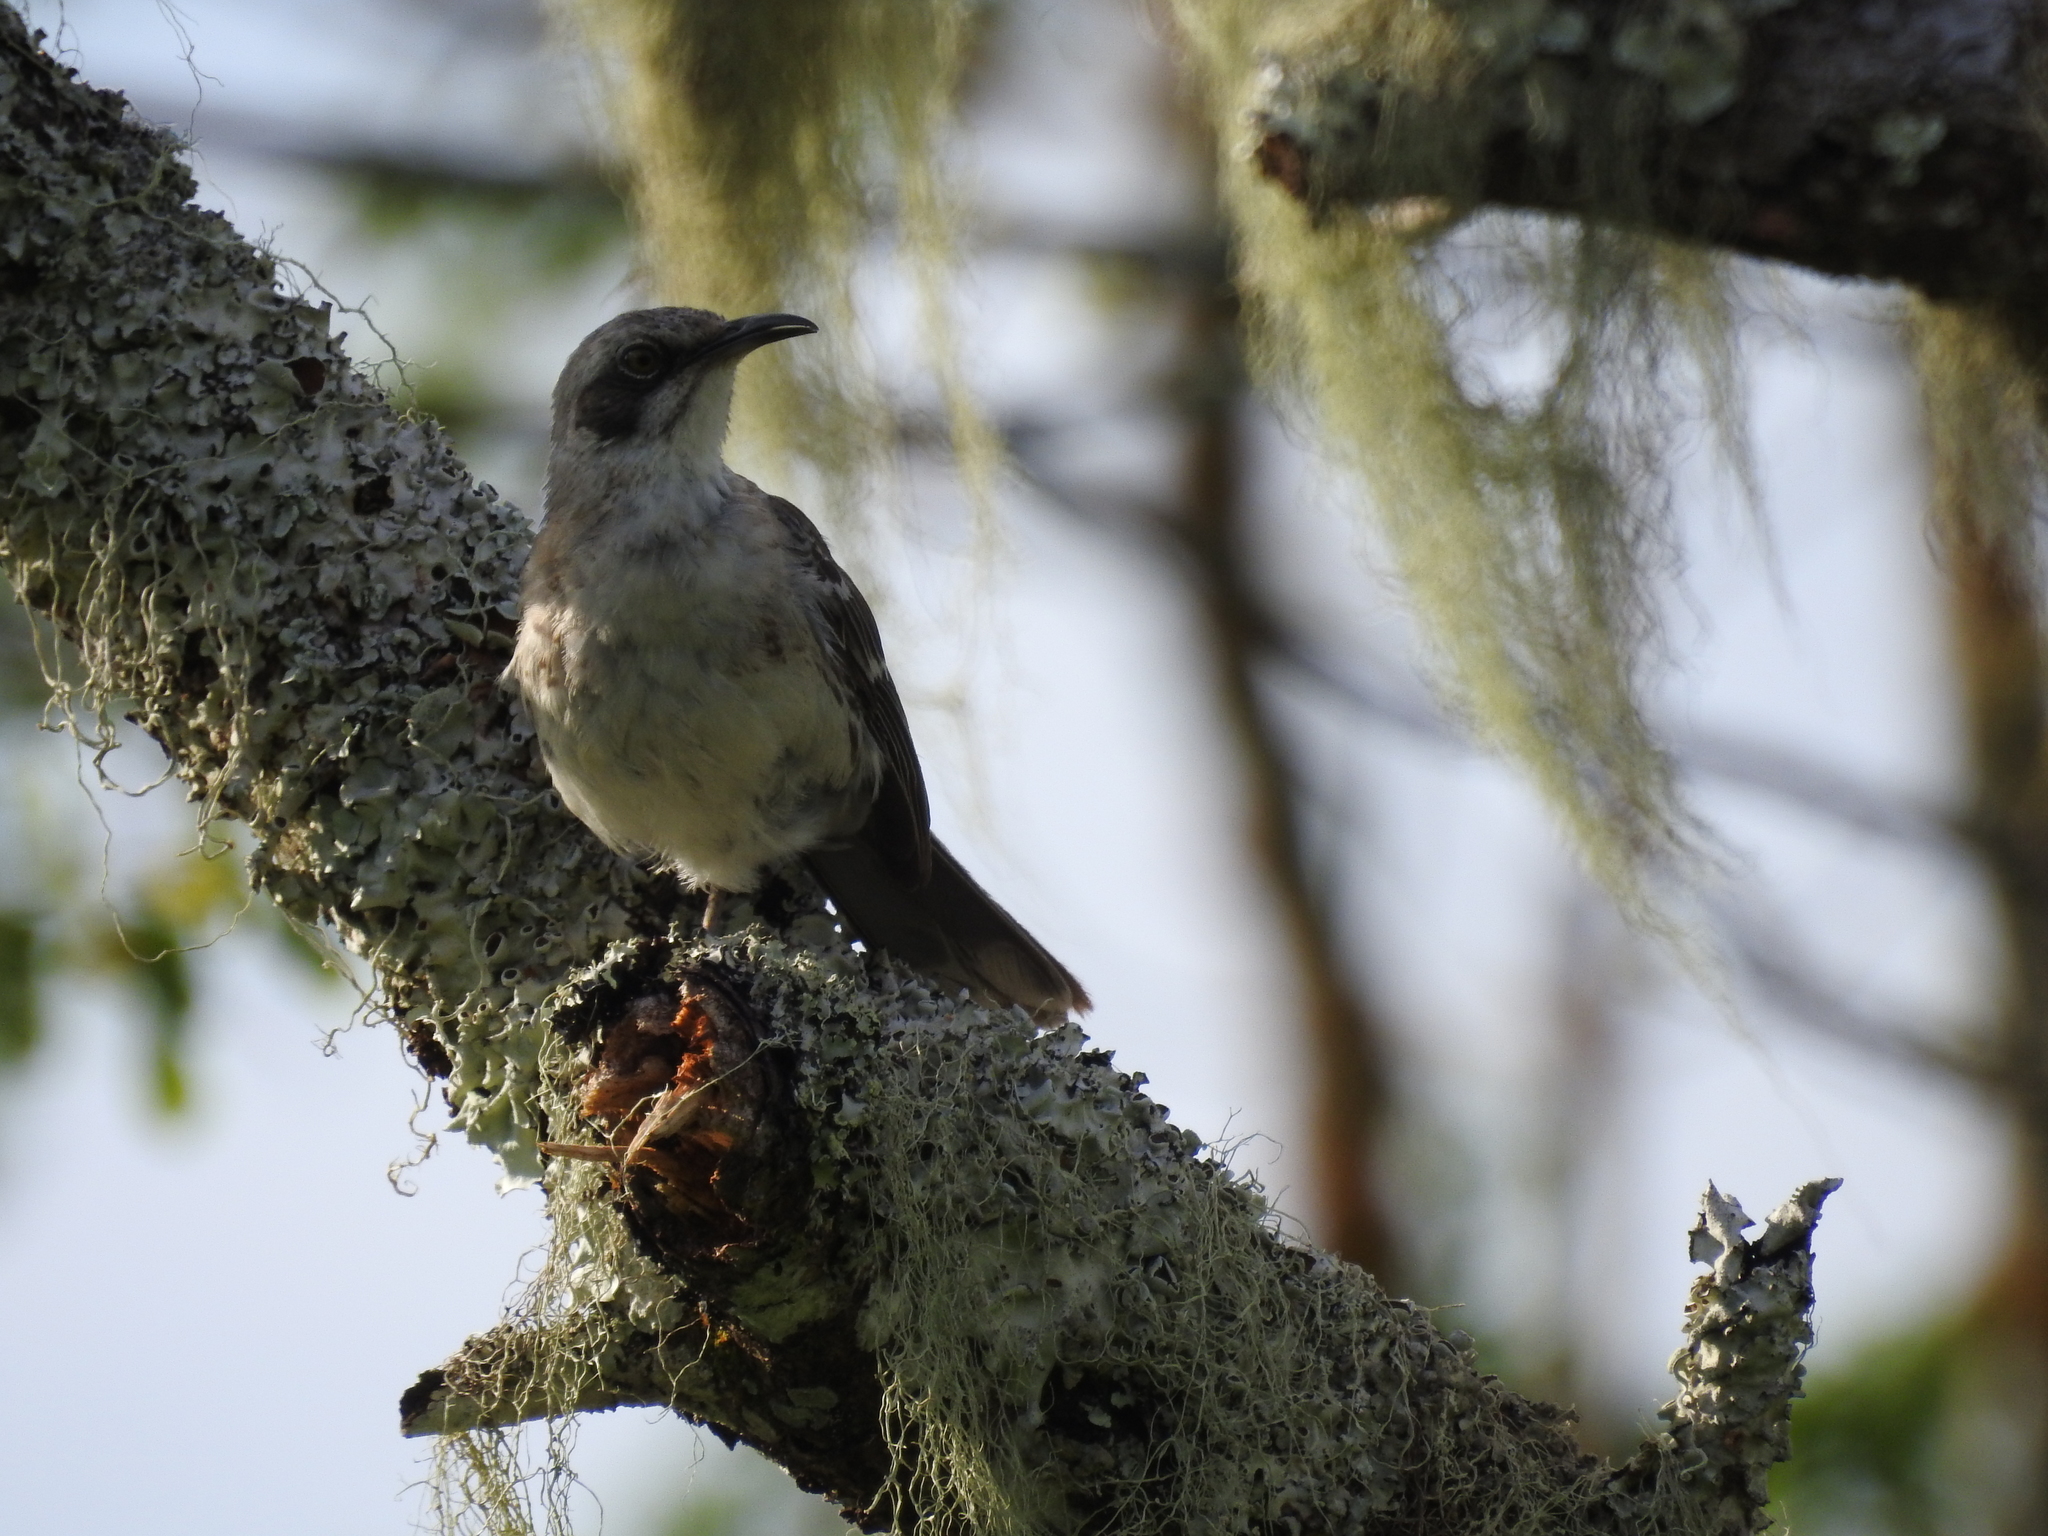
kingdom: Animalia
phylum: Chordata
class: Aves
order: Passeriformes
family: Mimidae
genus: Mimus
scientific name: Mimus melanotis
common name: San cristobal mockingbird
